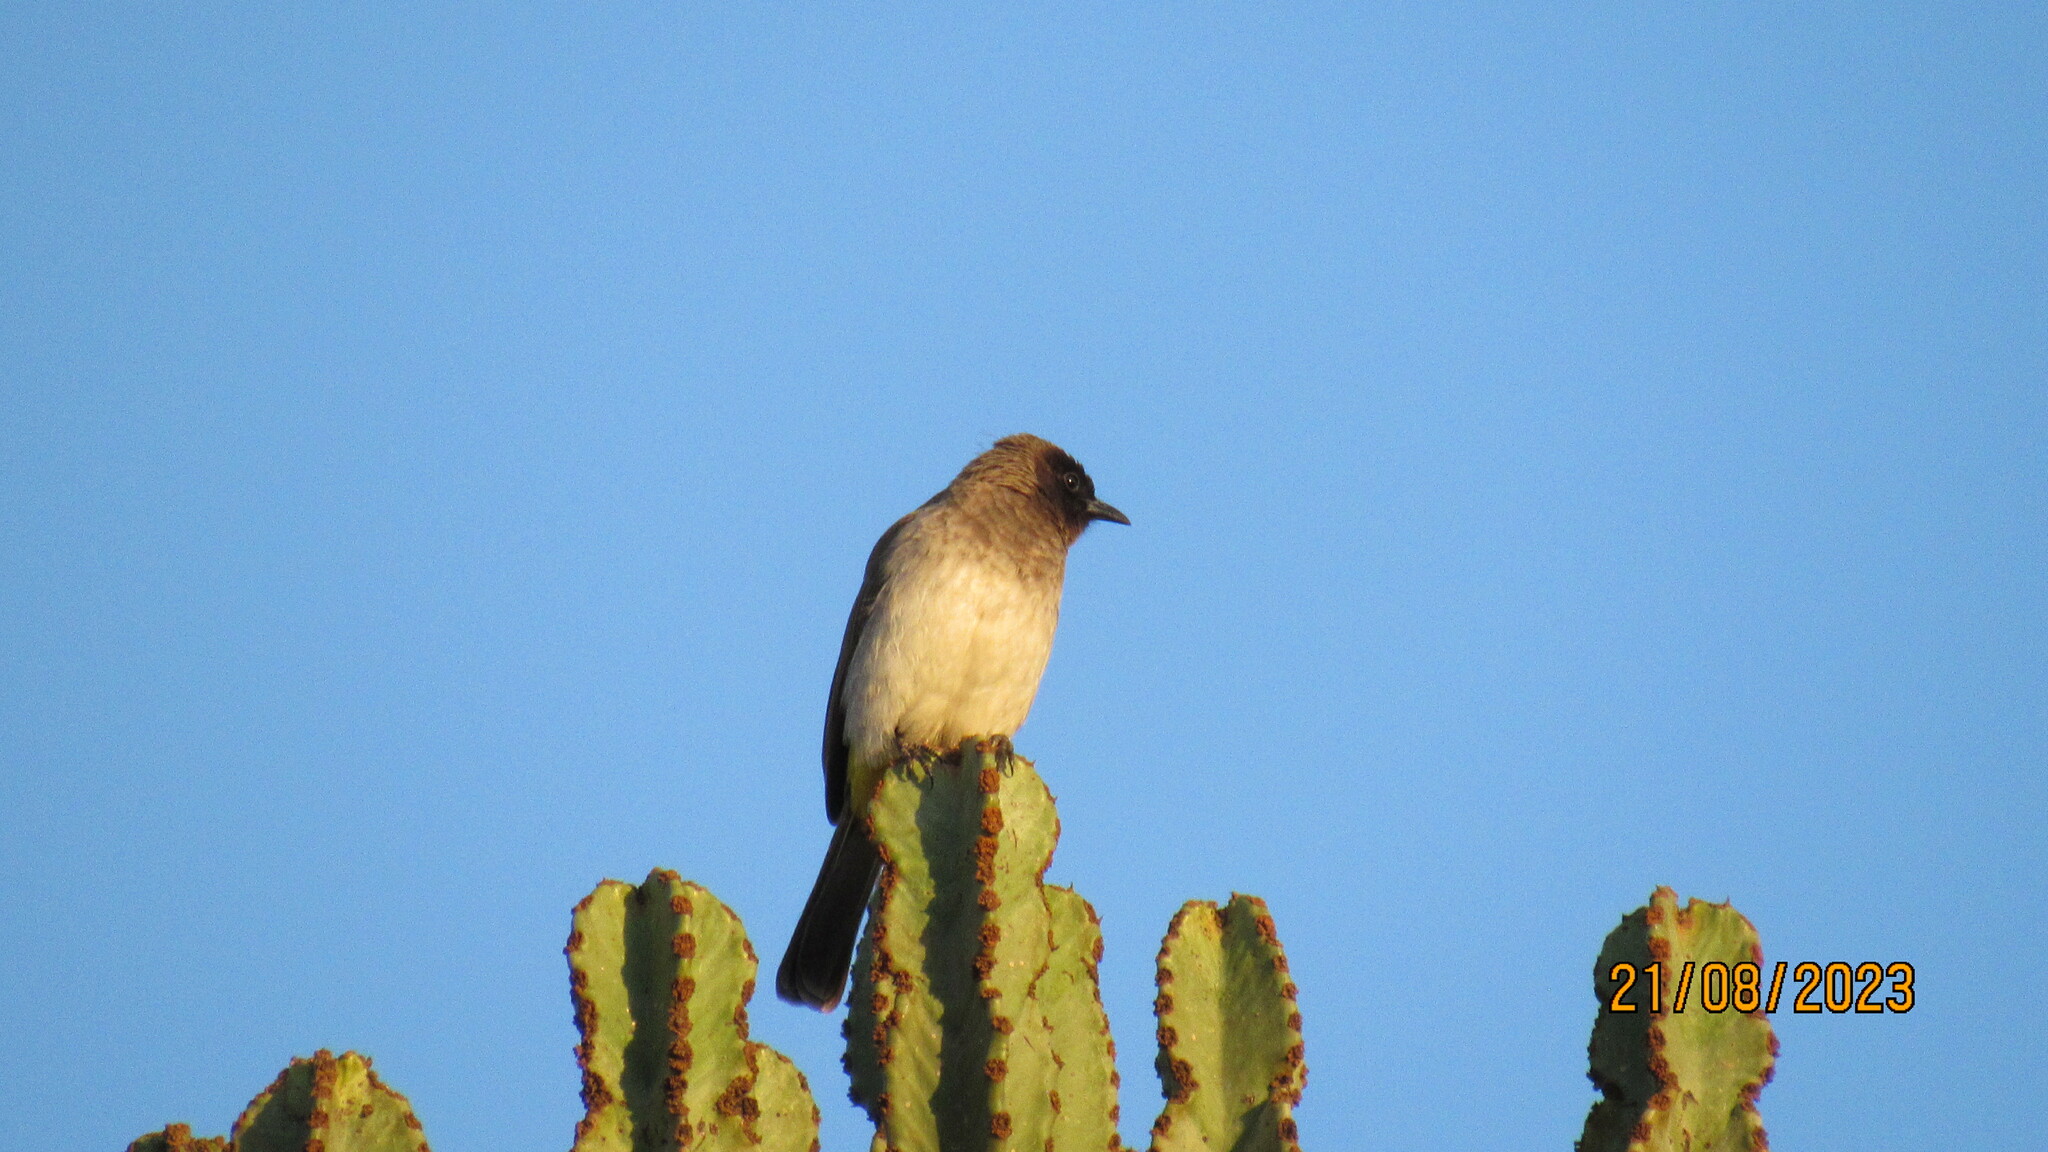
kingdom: Animalia
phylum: Chordata
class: Aves
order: Passeriformes
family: Pycnonotidae
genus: Pycnonotus
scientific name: Pycnonotus barbatus
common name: Common bulbul
